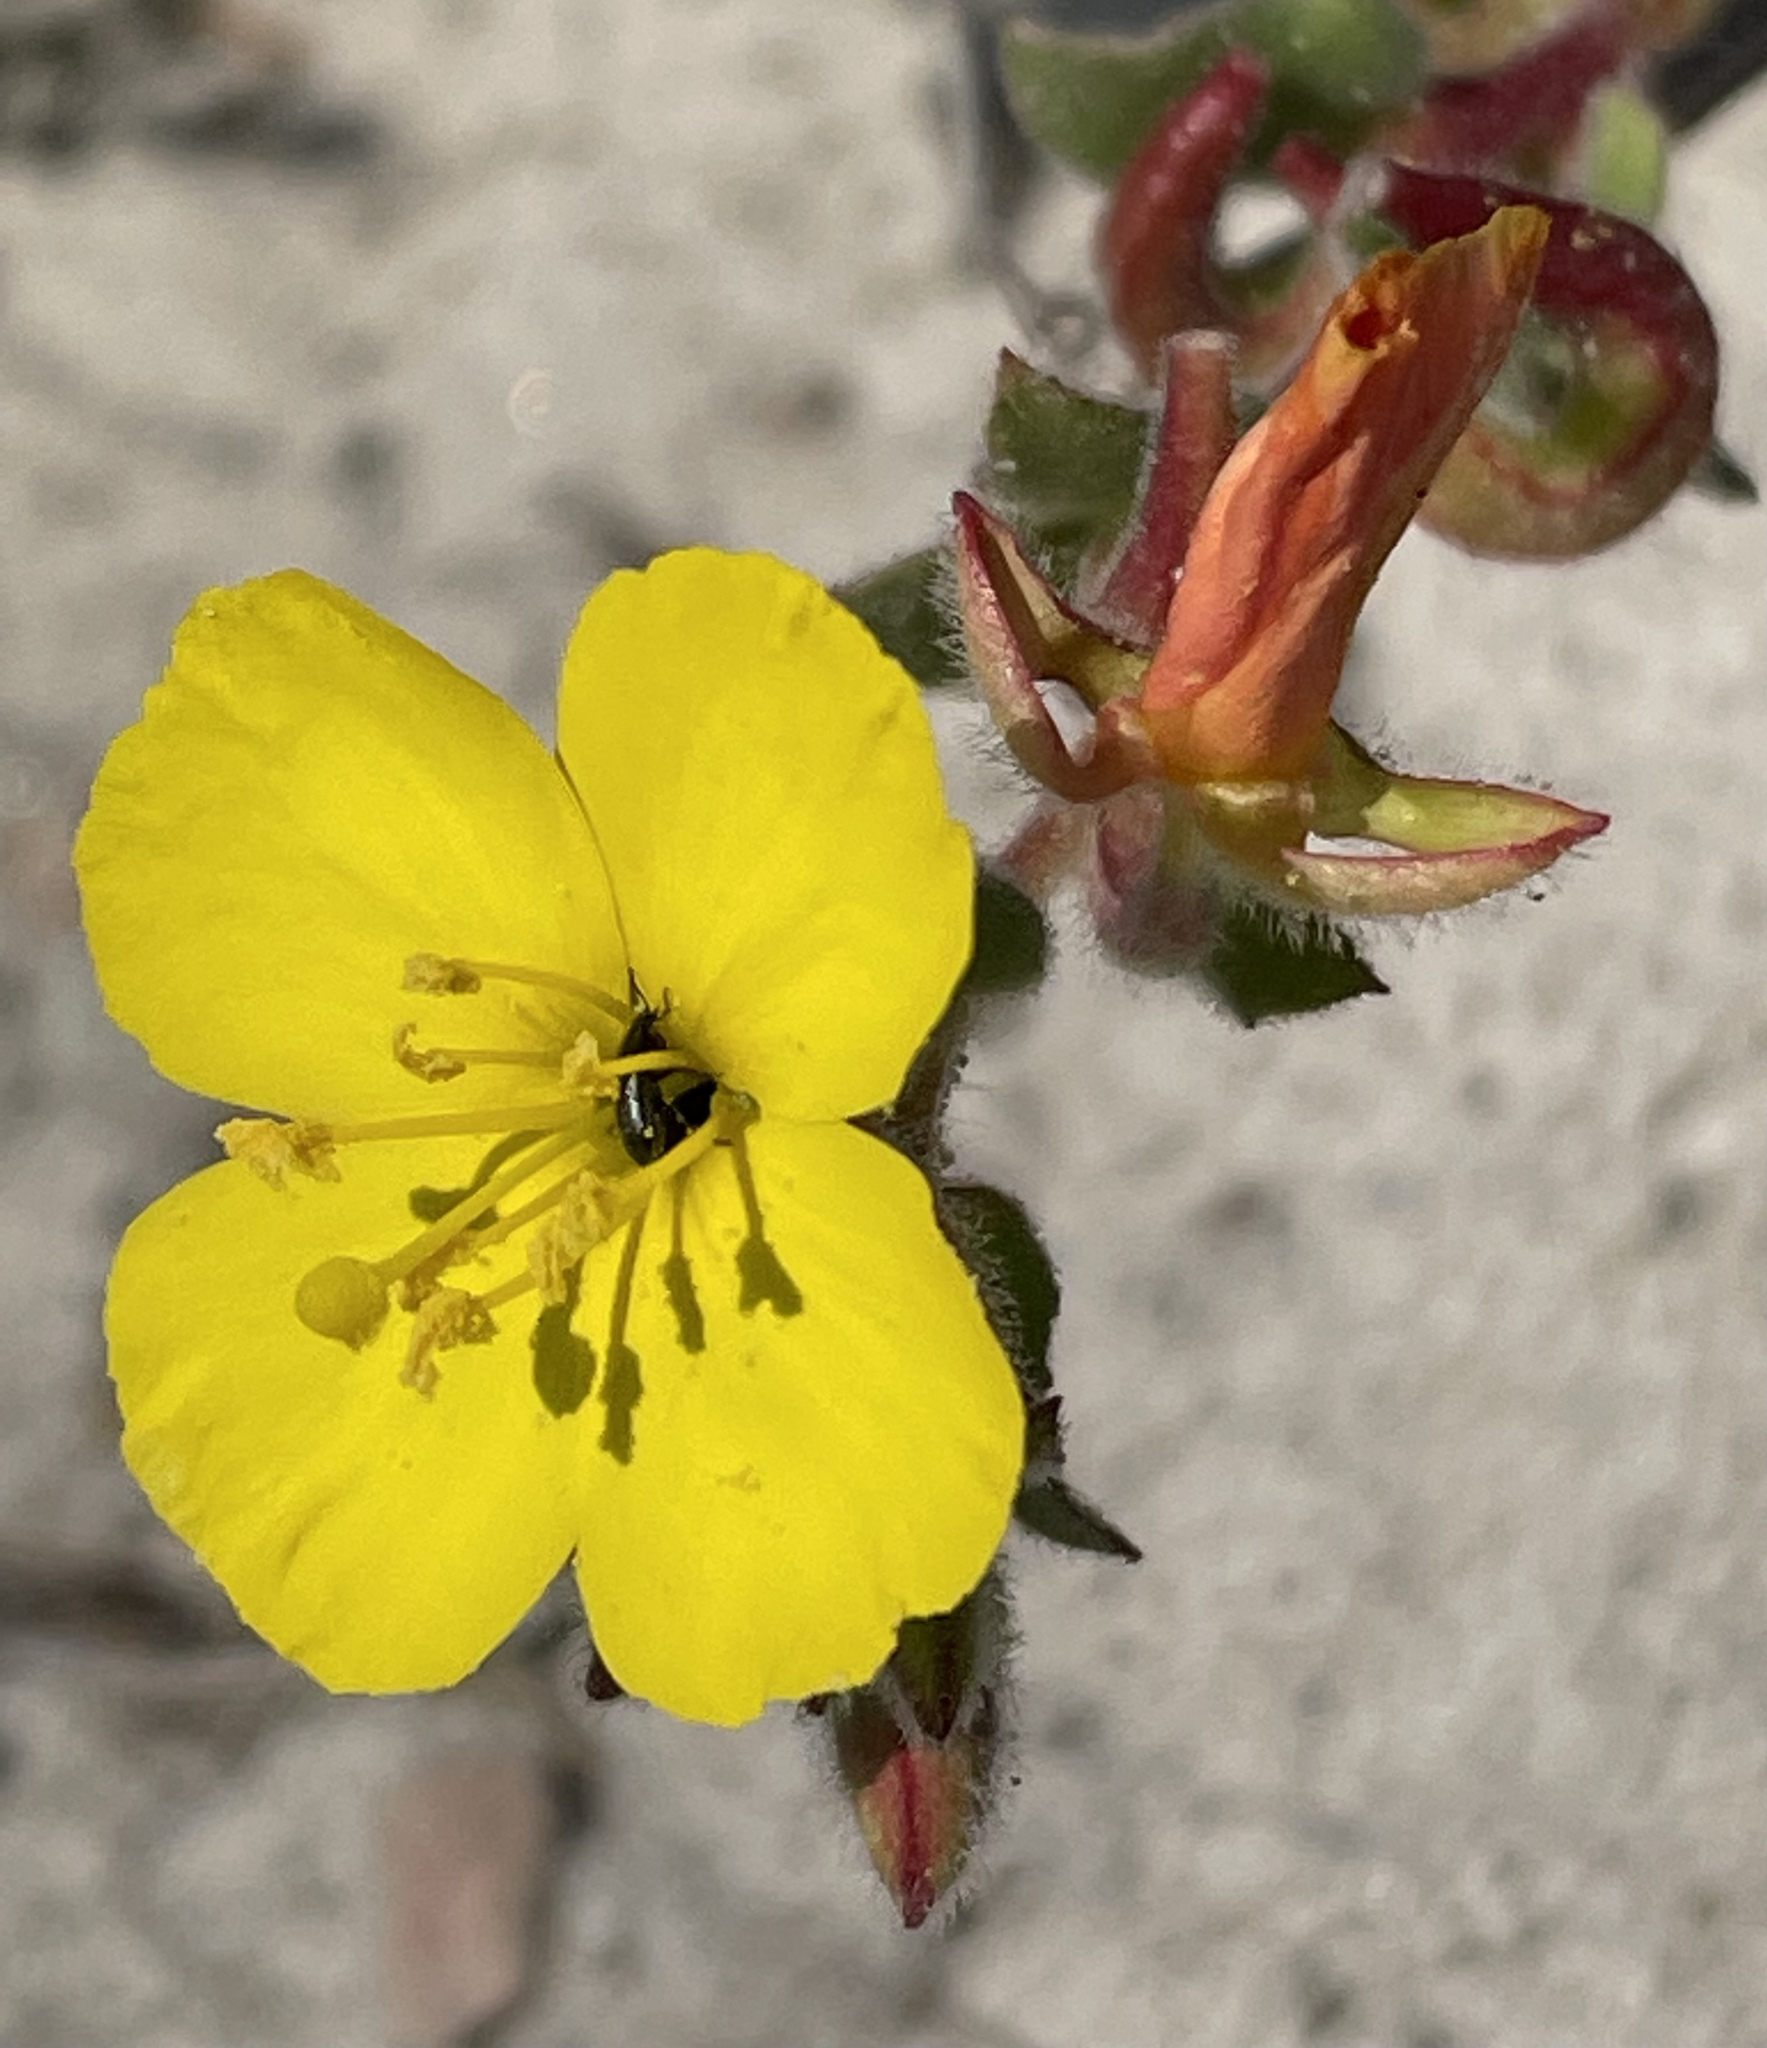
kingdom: Plantae
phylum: Tracheophyta
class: Magnoliopsida
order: Myrtales
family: Onagraceae
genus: Camissoniopsis
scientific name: Camissoniopsis cheiranthifolia
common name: Beach suncup
